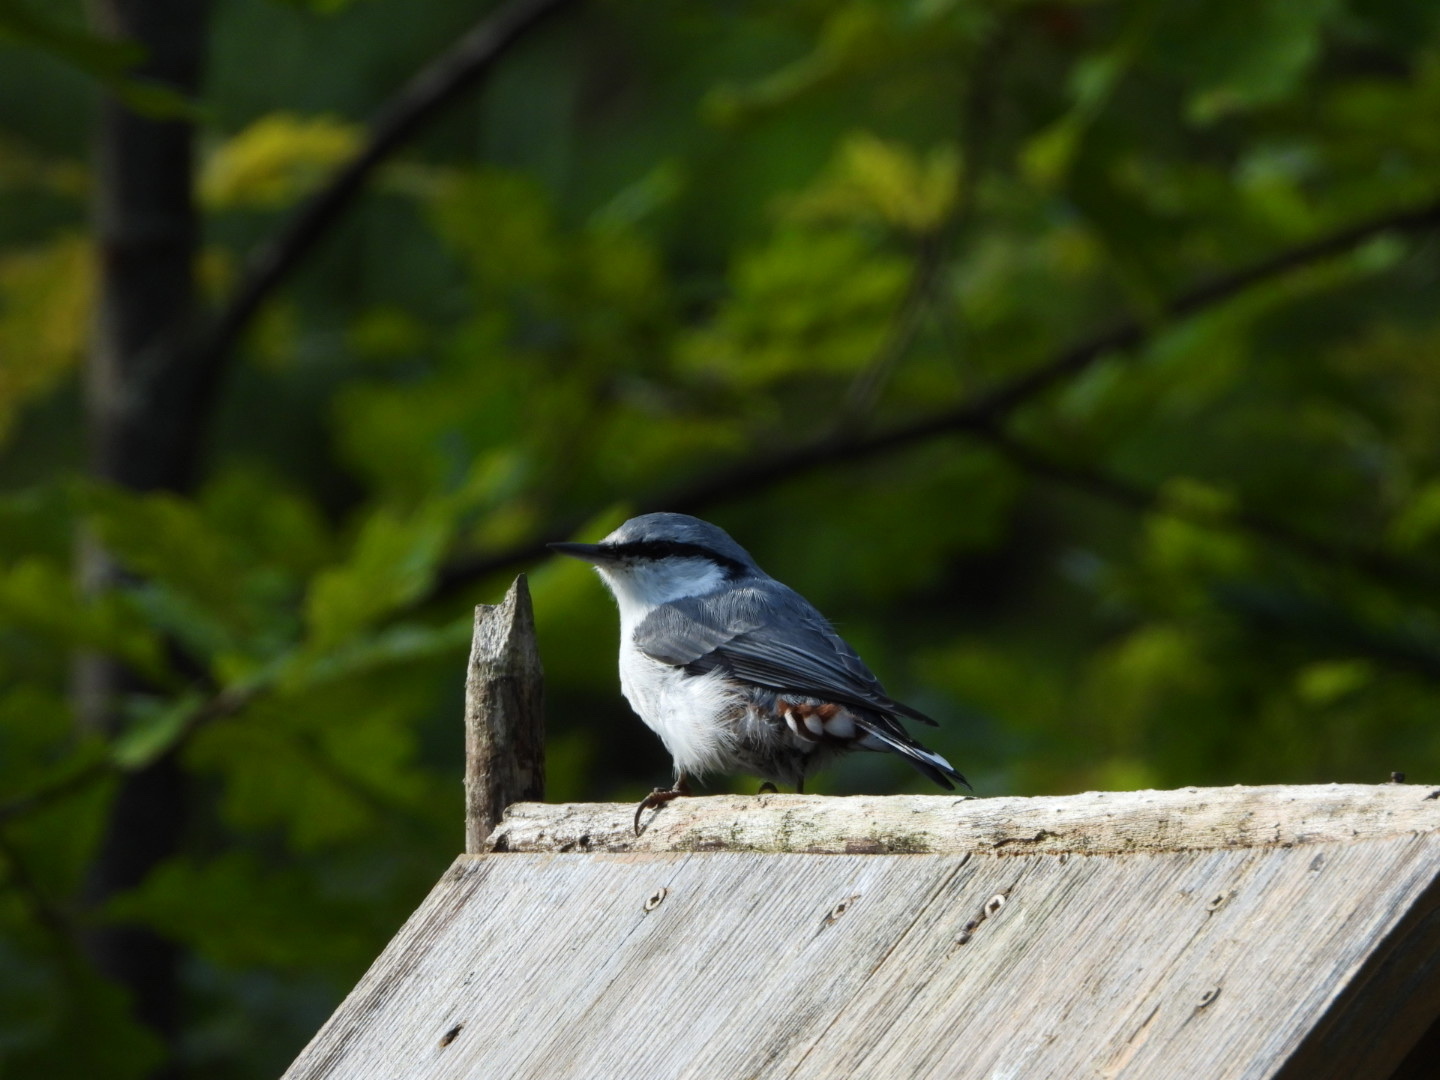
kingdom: Animalia
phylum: Chordata
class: Aves
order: Passeriformes
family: Sittidae
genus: Sitta
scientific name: Sitta europaea
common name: Eurasian nuthatch
